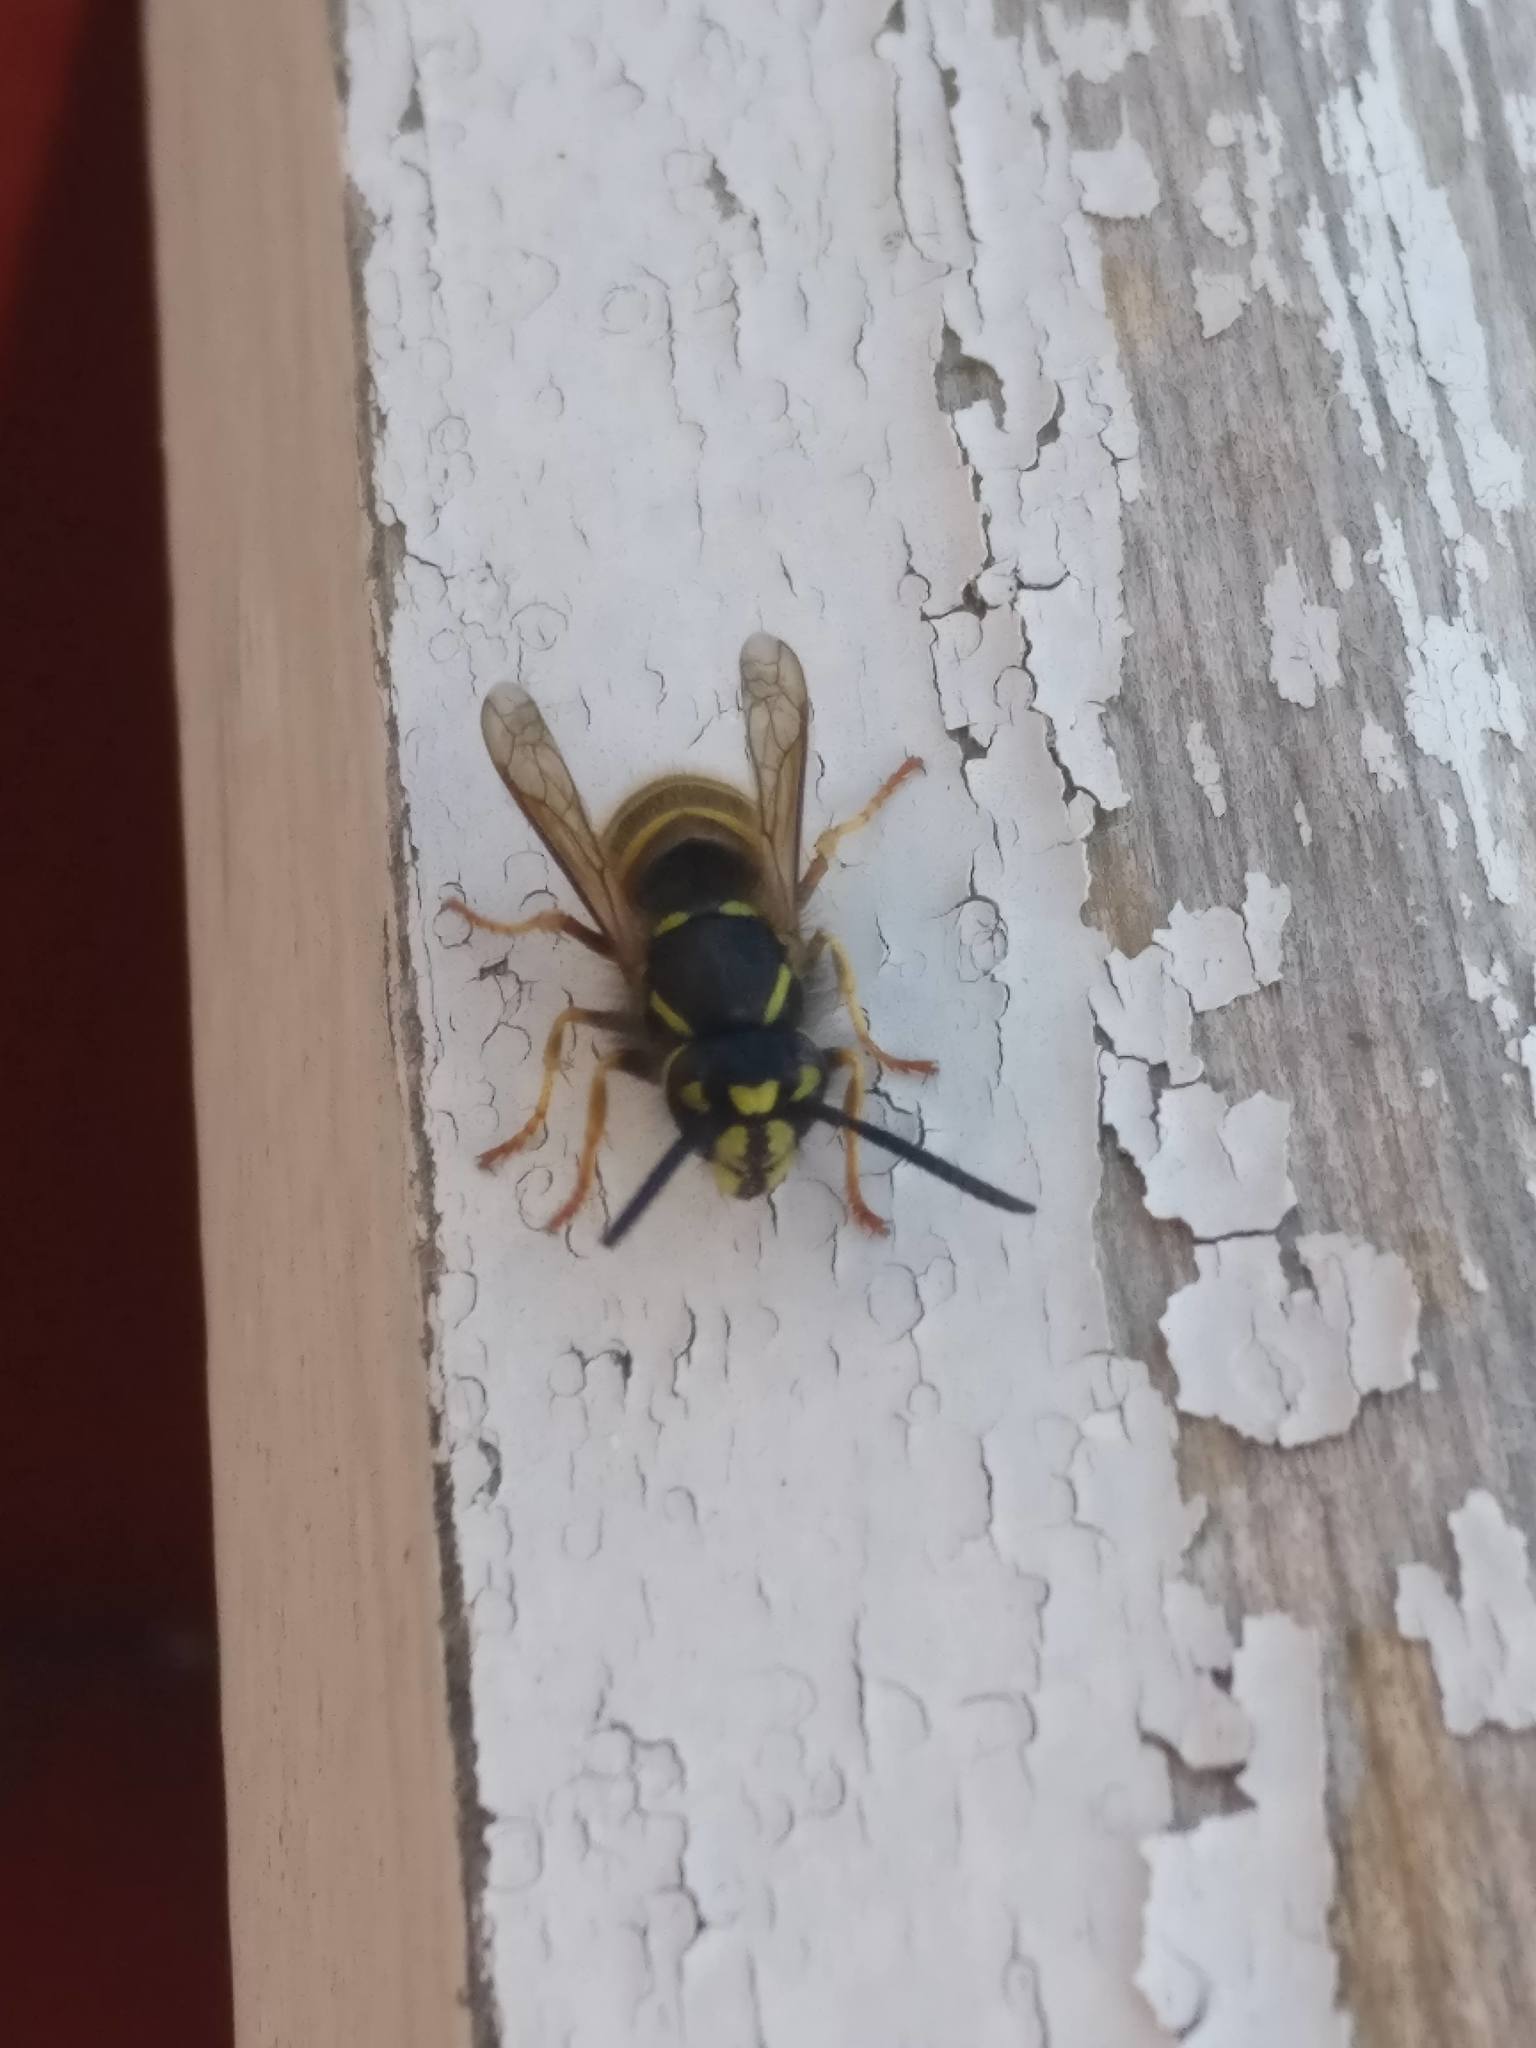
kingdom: Animalia
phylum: Arthropoda
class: Insecta
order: Hymenoptera
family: Vespidae
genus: Vespula
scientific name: Vespula vulgaris
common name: Common wasp
